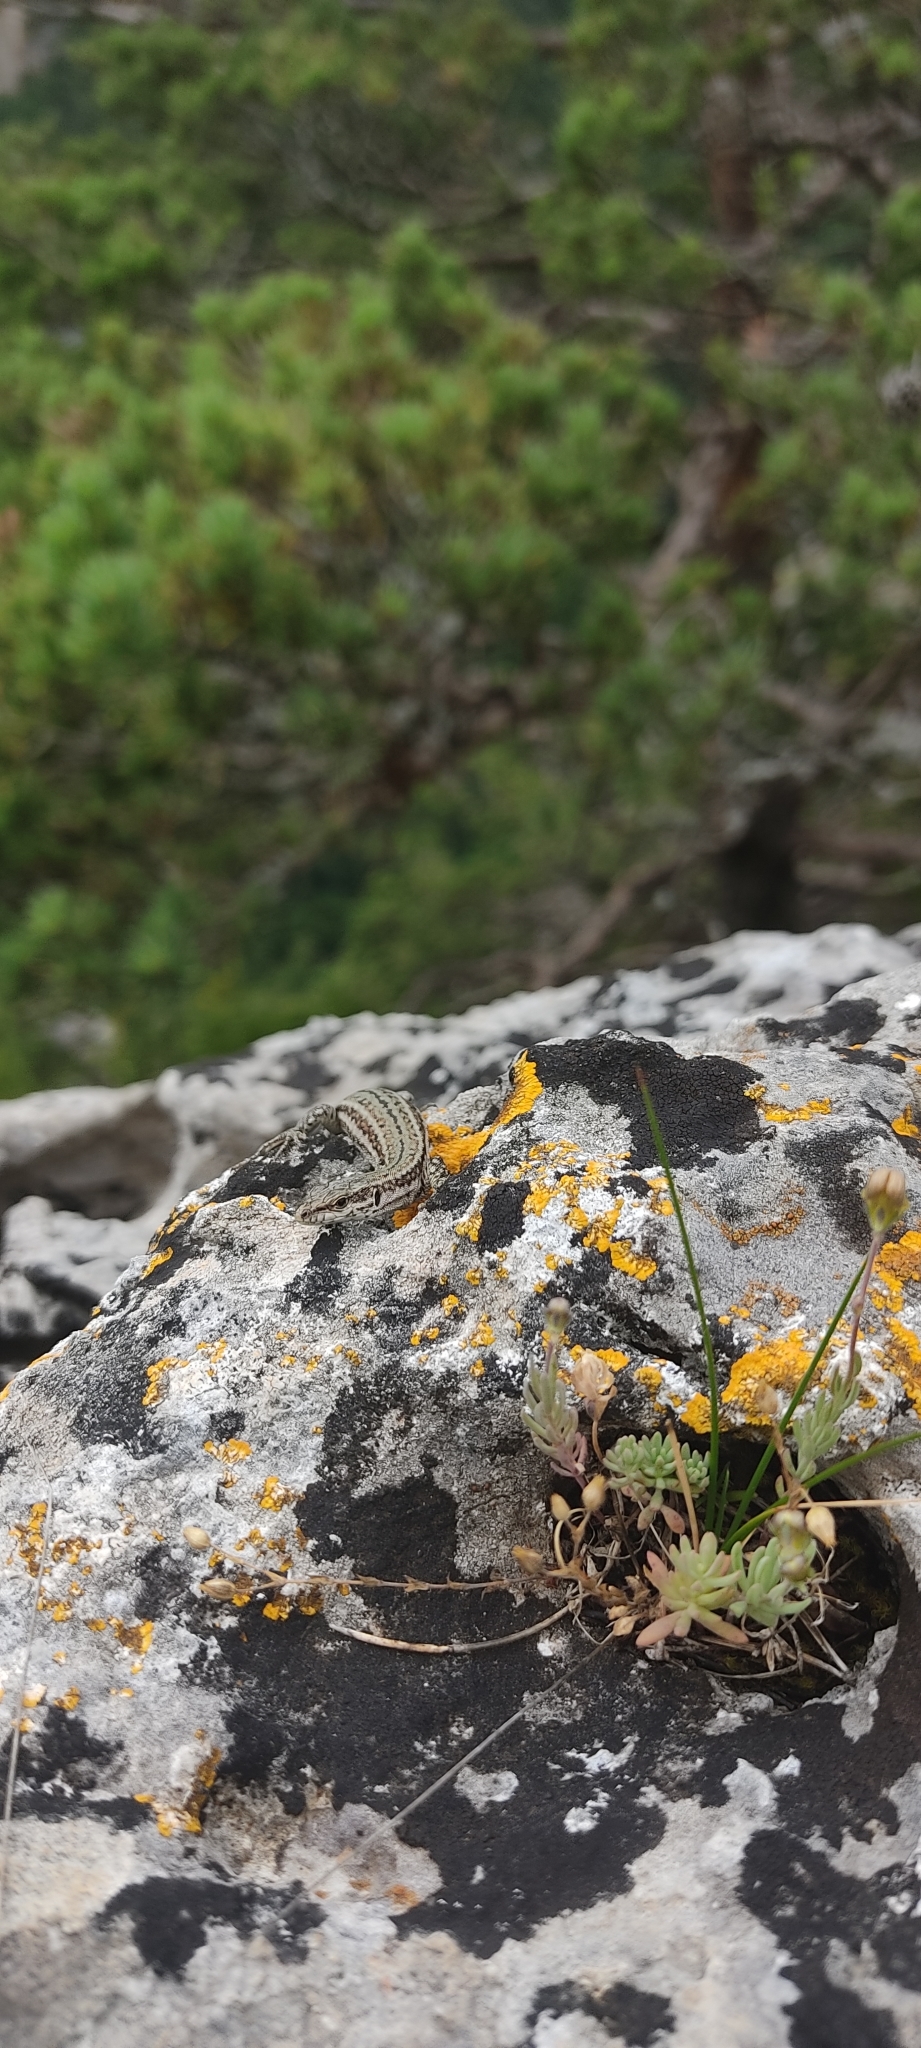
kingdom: Animalia
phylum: Chordata
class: Squamata
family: Lacertidae
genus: Podarcis
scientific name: Podarcis liolepis
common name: Catalonian wall lizard
